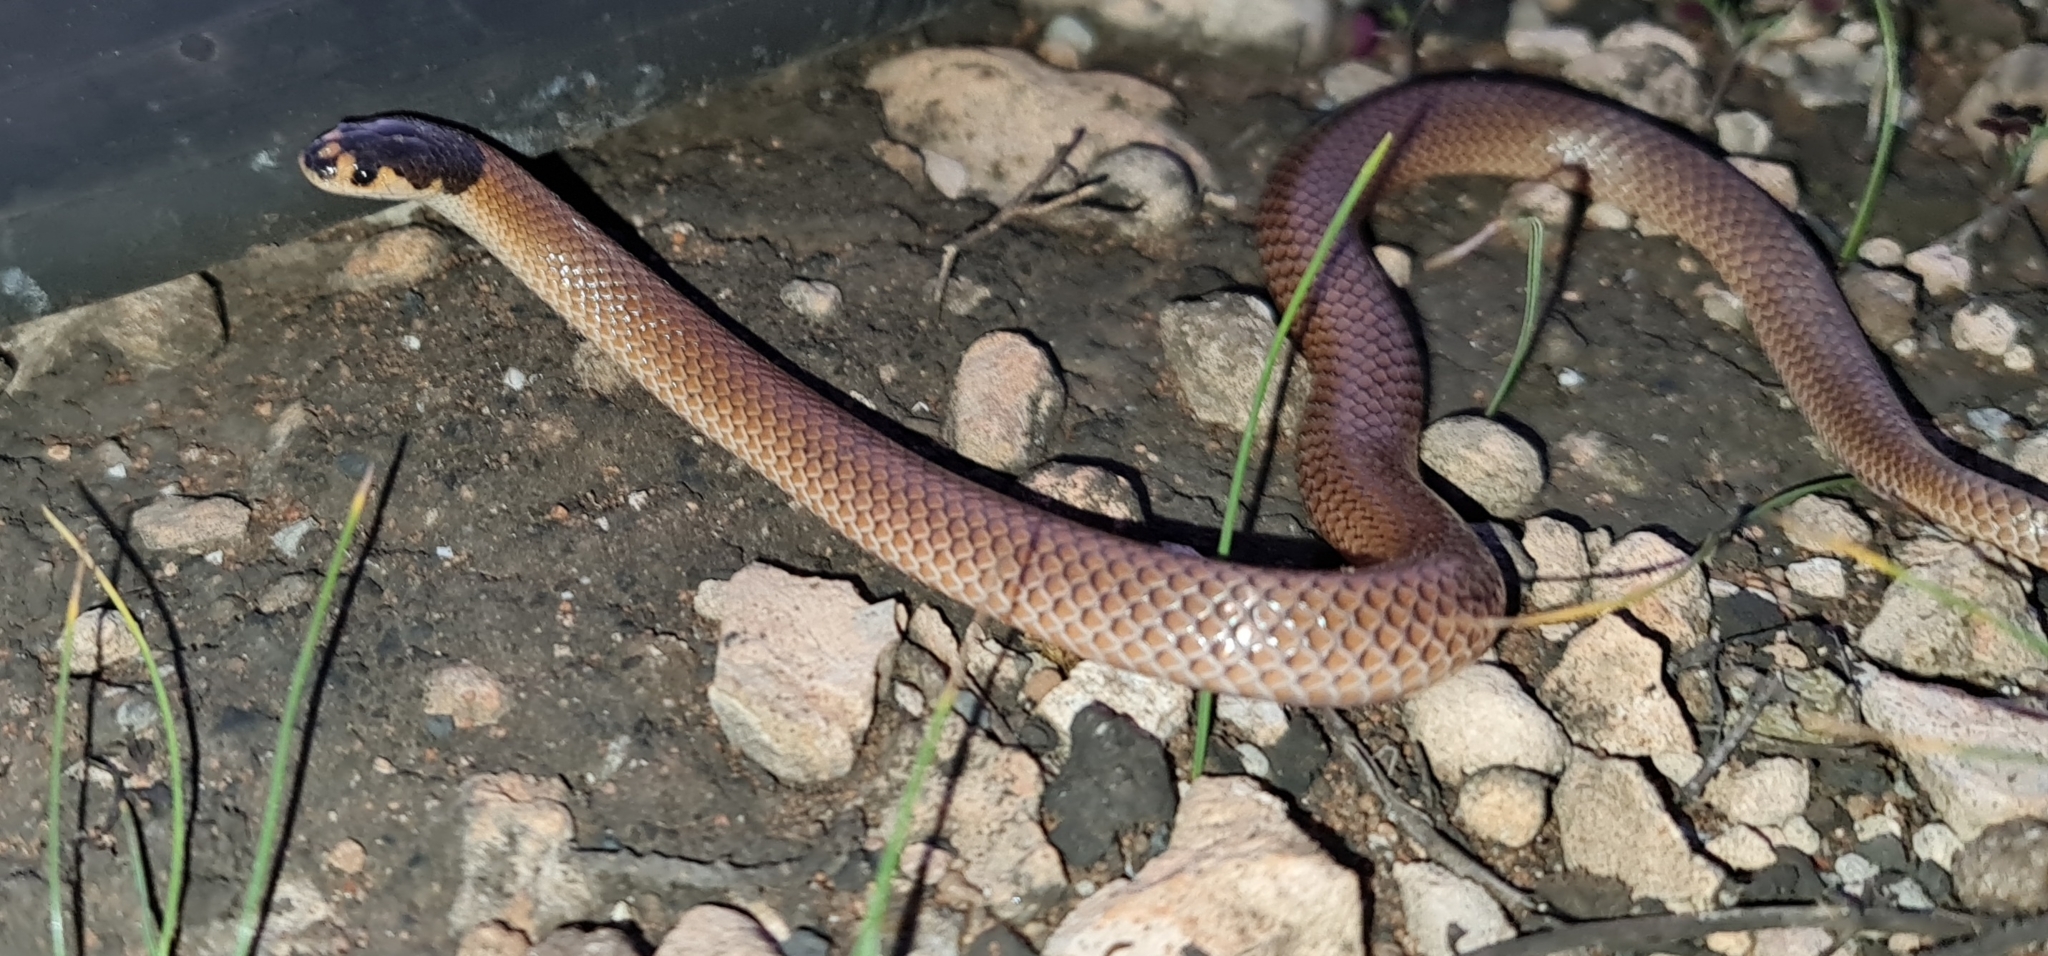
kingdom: Animalia
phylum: Chordata
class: Squamata
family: Elapidae
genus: Suta
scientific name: Suta spectabilis
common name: Bush’s hooded snake
